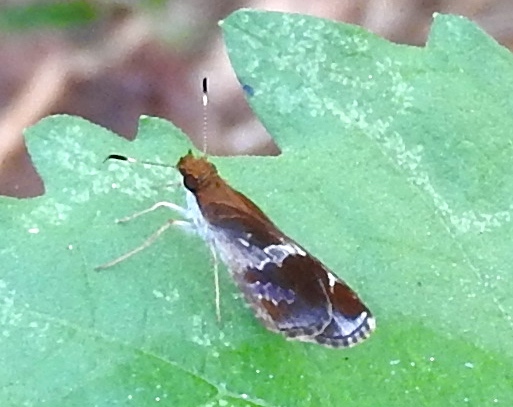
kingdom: Animalia
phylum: Arthropoda
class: Insecta
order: Lepidoptera
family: Hesperiidae
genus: Moeris
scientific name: Moeris crispinus
